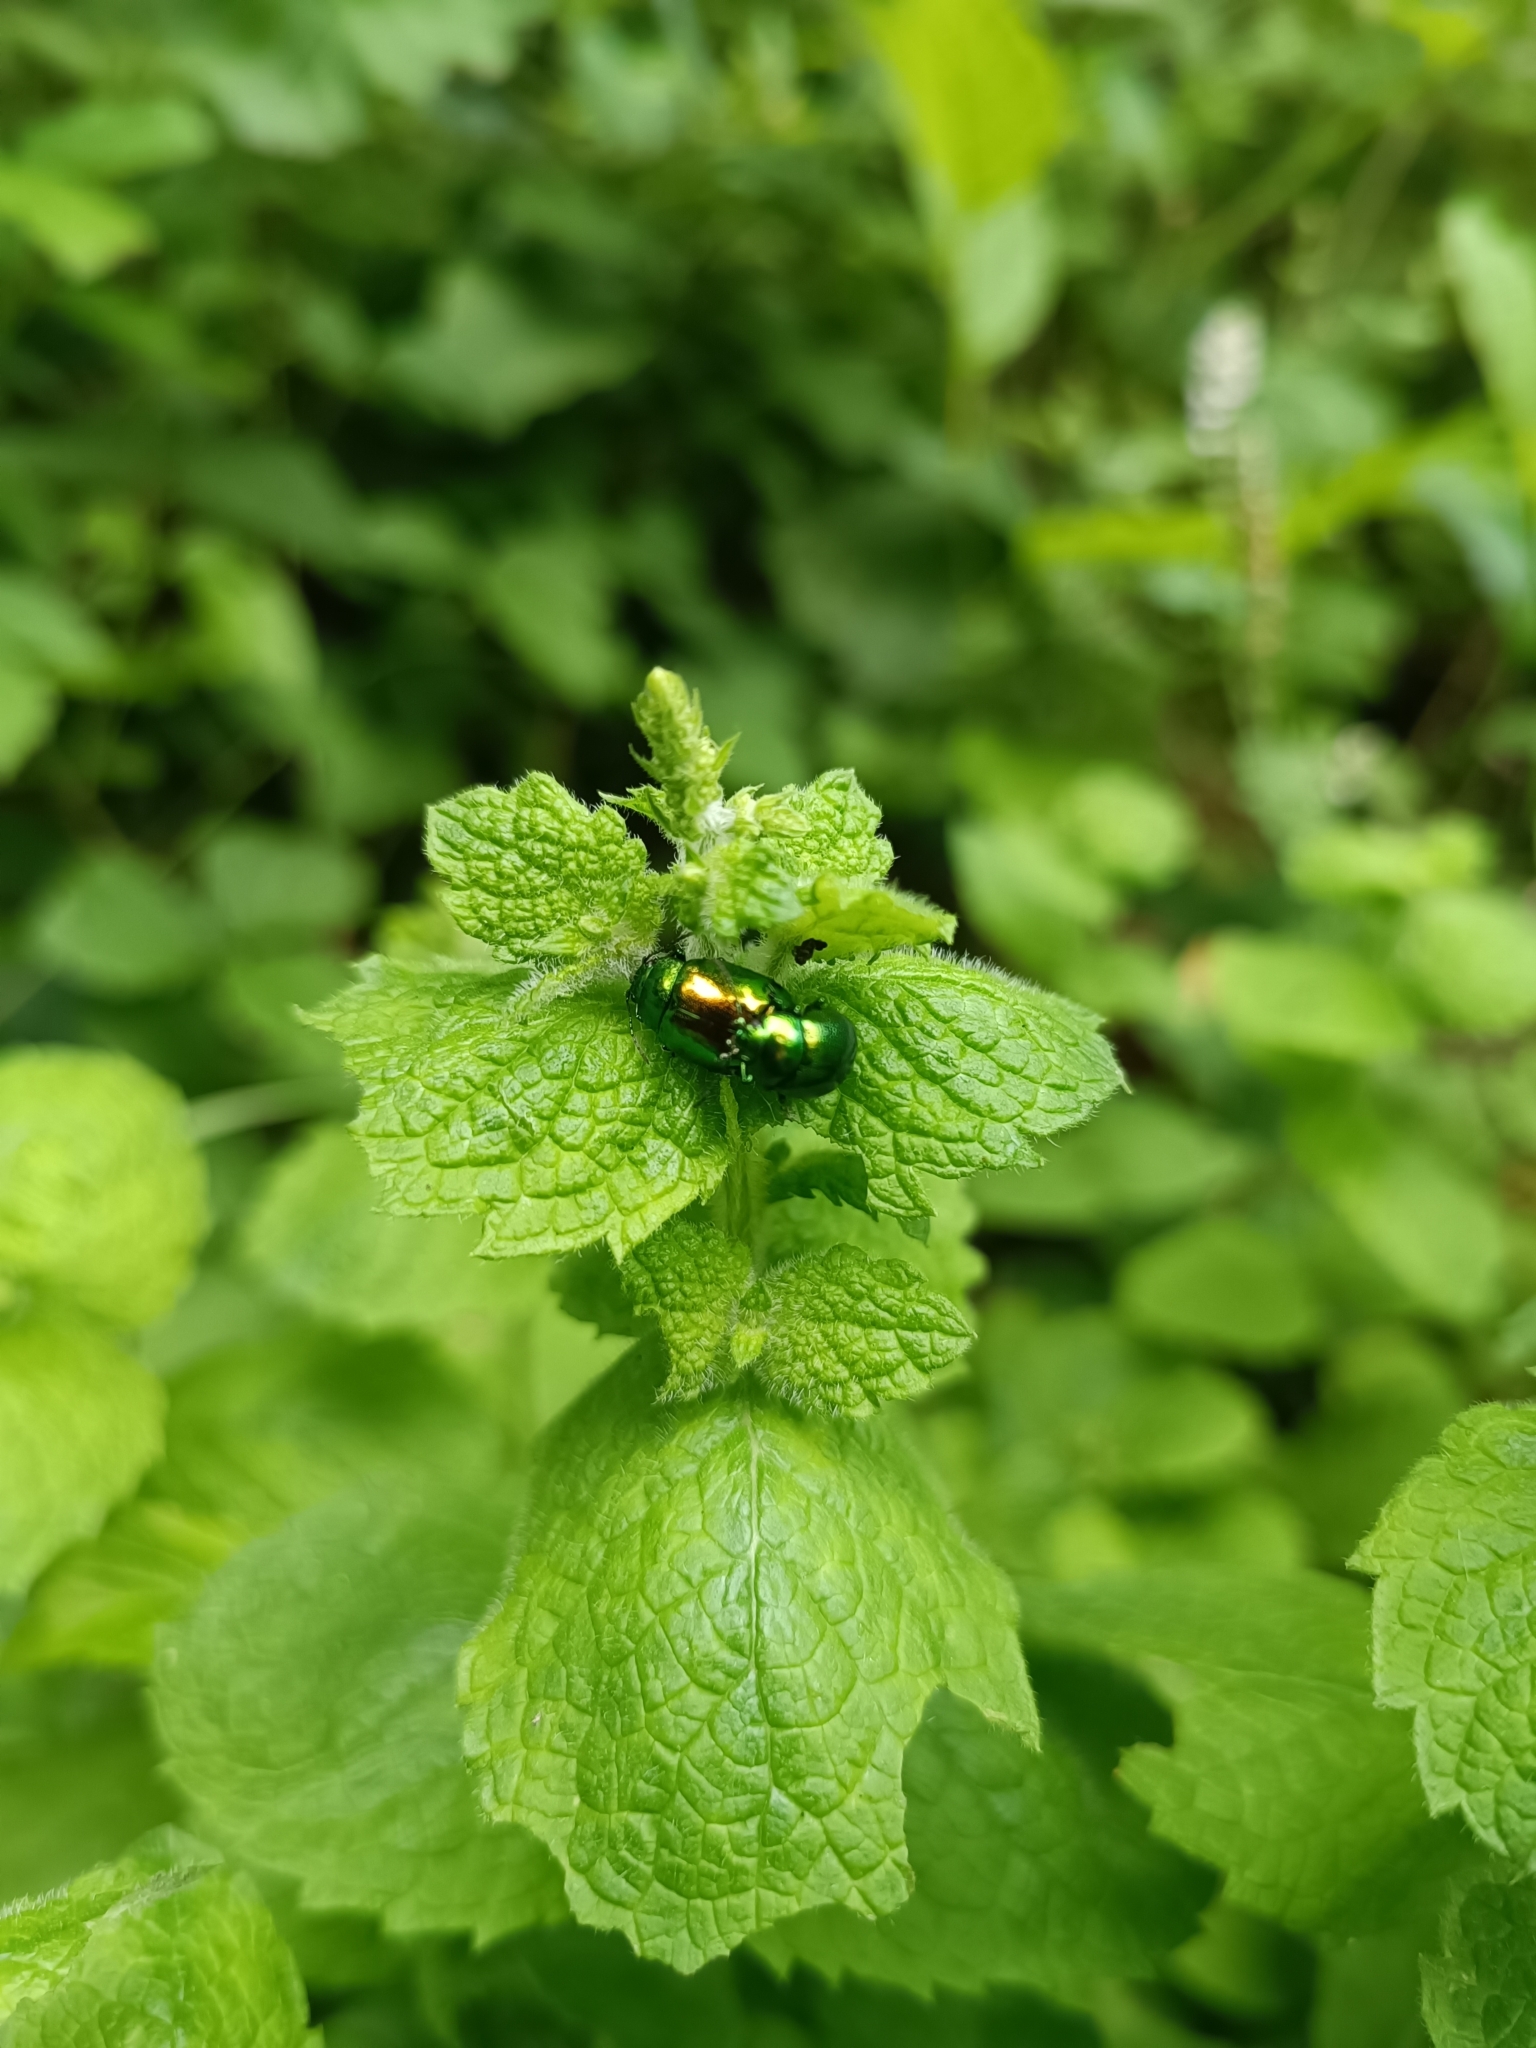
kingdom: Animalia
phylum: Arthropoda
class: Insecta
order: Coleoptera
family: Chrysomelidae
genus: Chrysolina
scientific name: Chrysolina herbacea
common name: Mint leaf beatle
